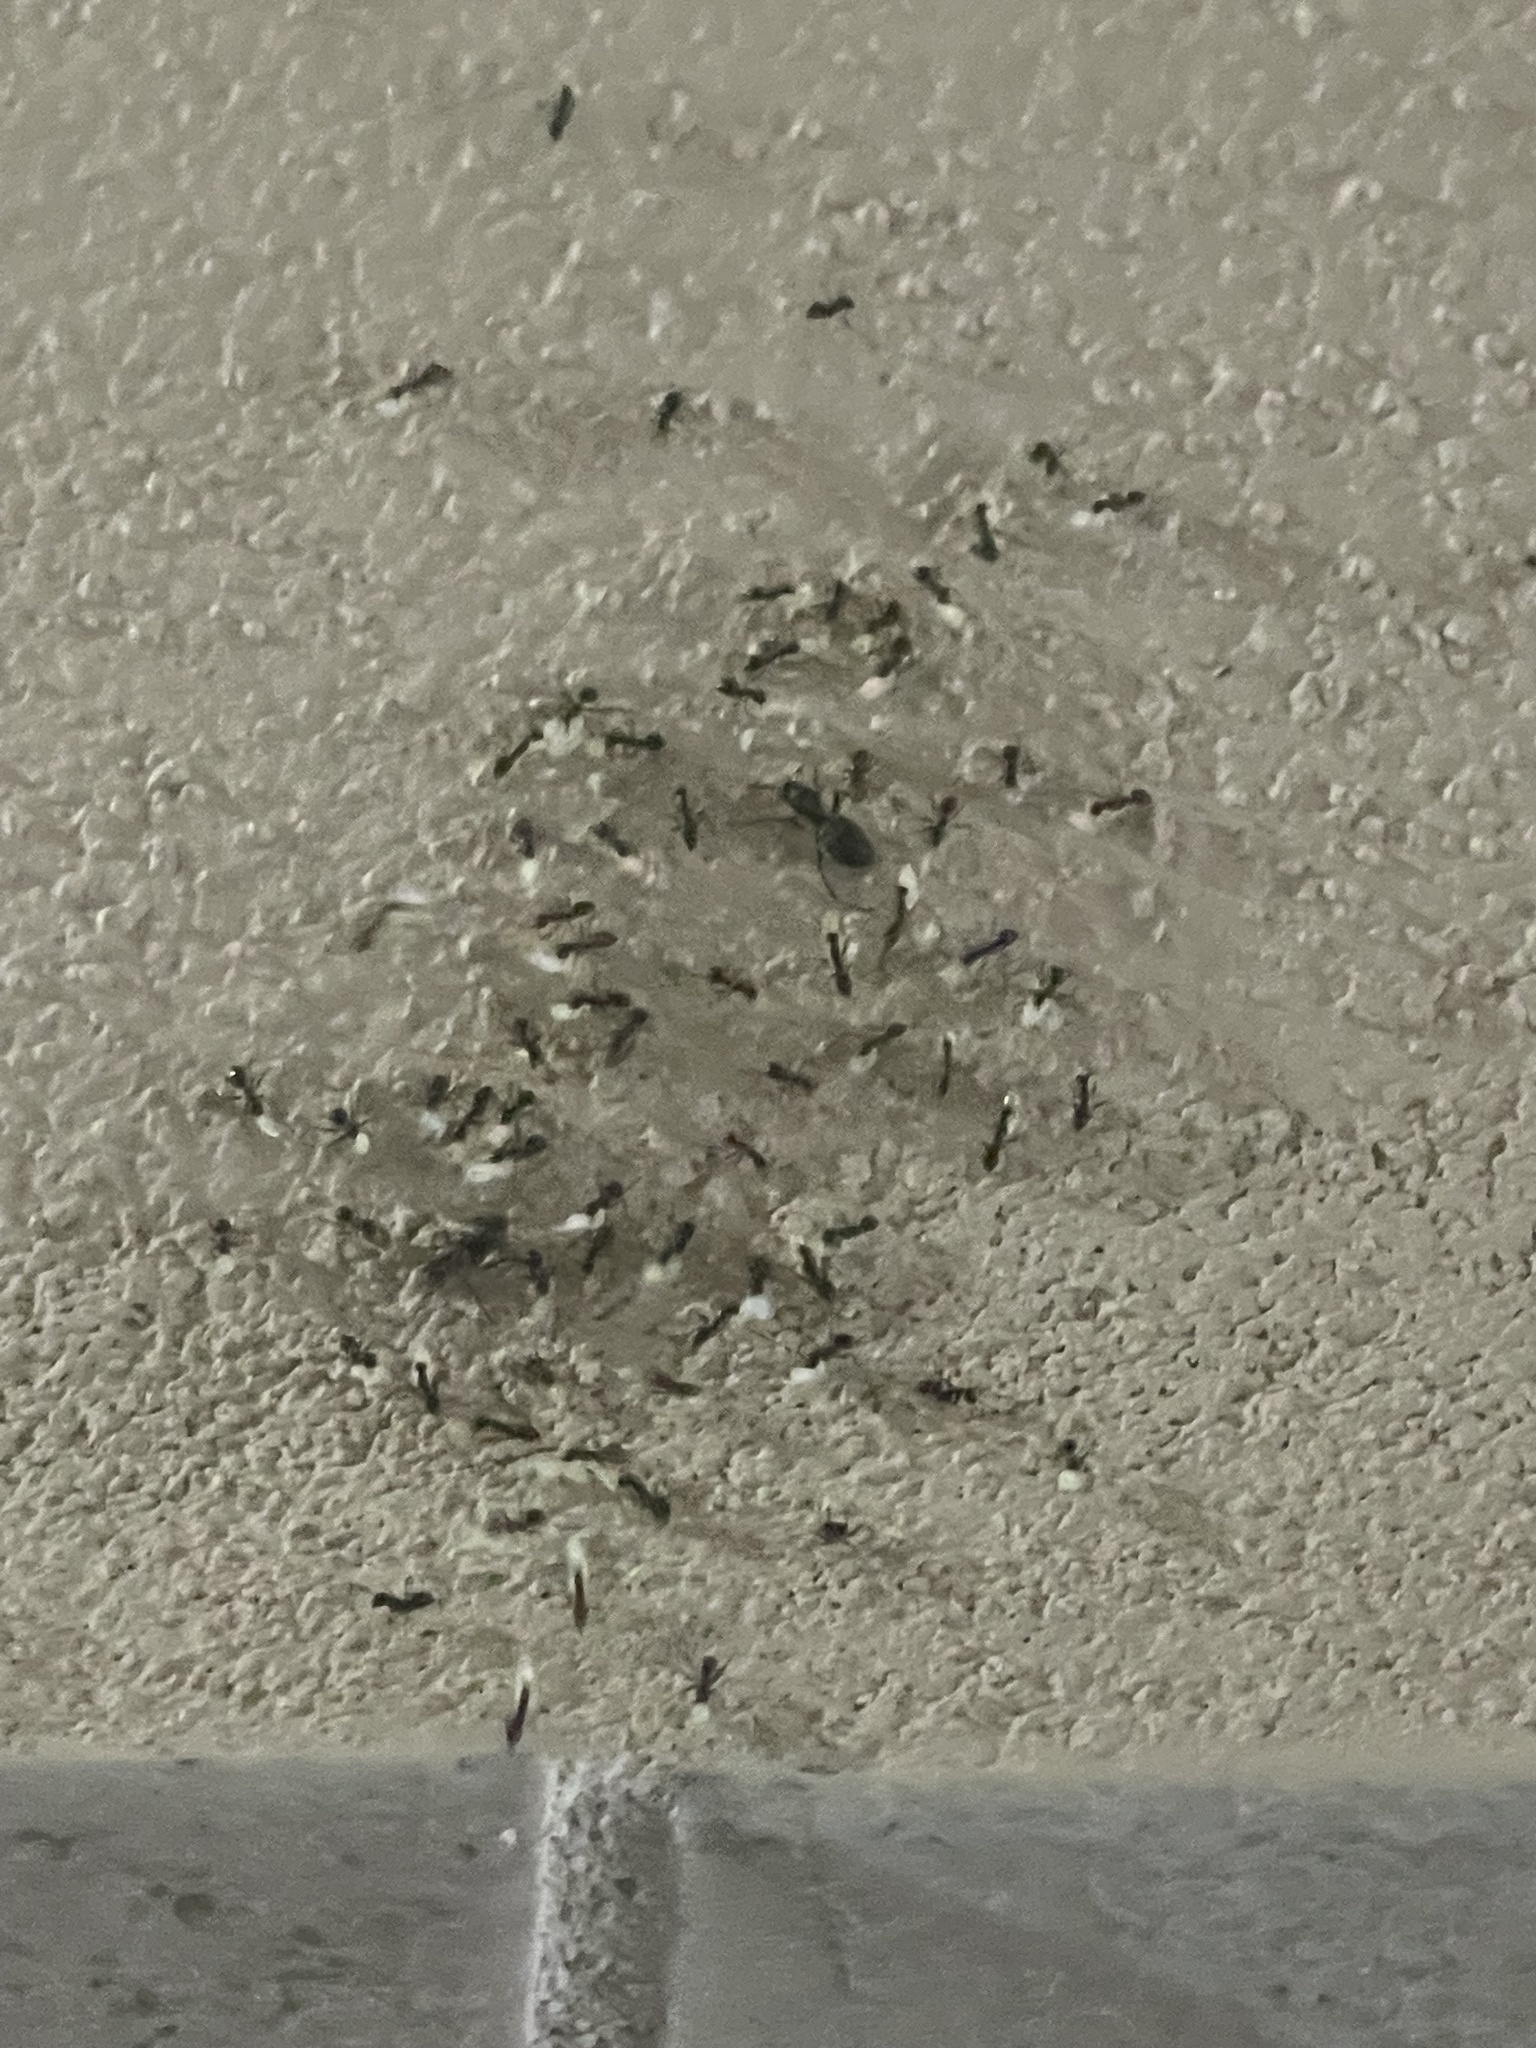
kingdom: Animalia
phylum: Arthropoda
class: Insecta
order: Hymenoptera
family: Formicidae
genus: Paratrechina
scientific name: Paratrechina longicornis
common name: Longhorned crazy ant
